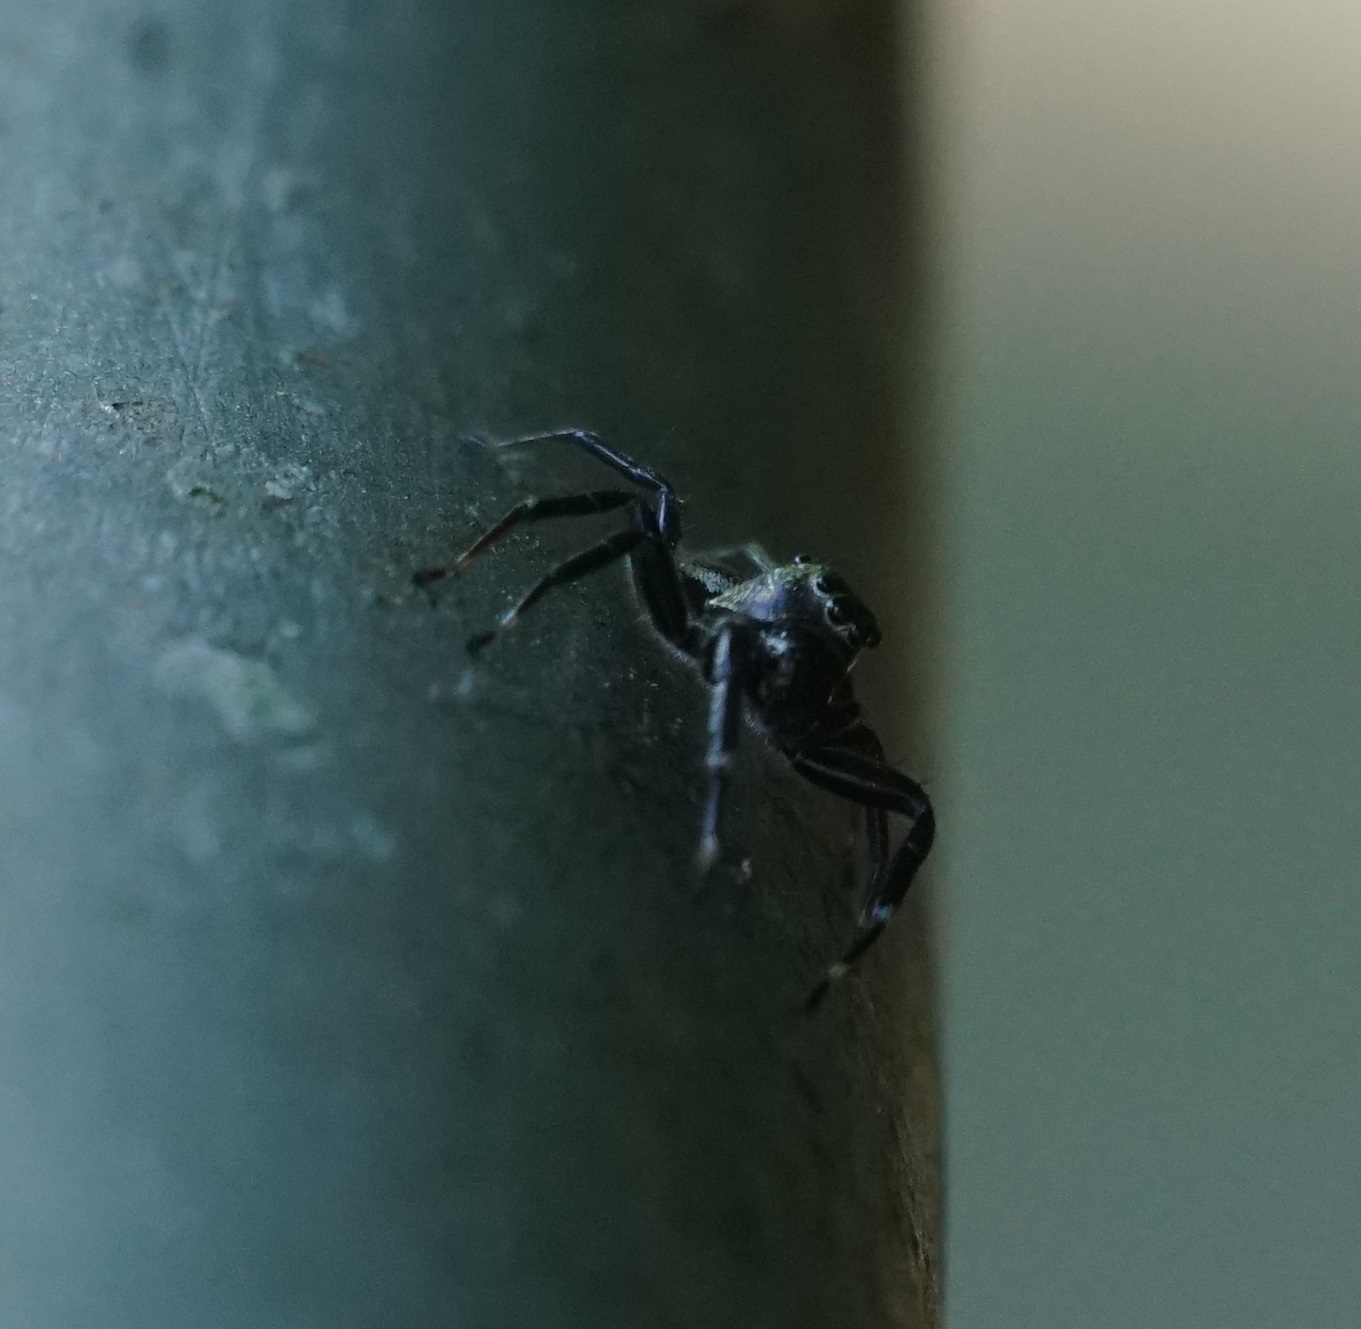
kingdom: Animalia
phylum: Arthropoda
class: Arachnida
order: Araneae
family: Salticidae
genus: Zenodorus
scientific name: Zenodorus swiftorum
